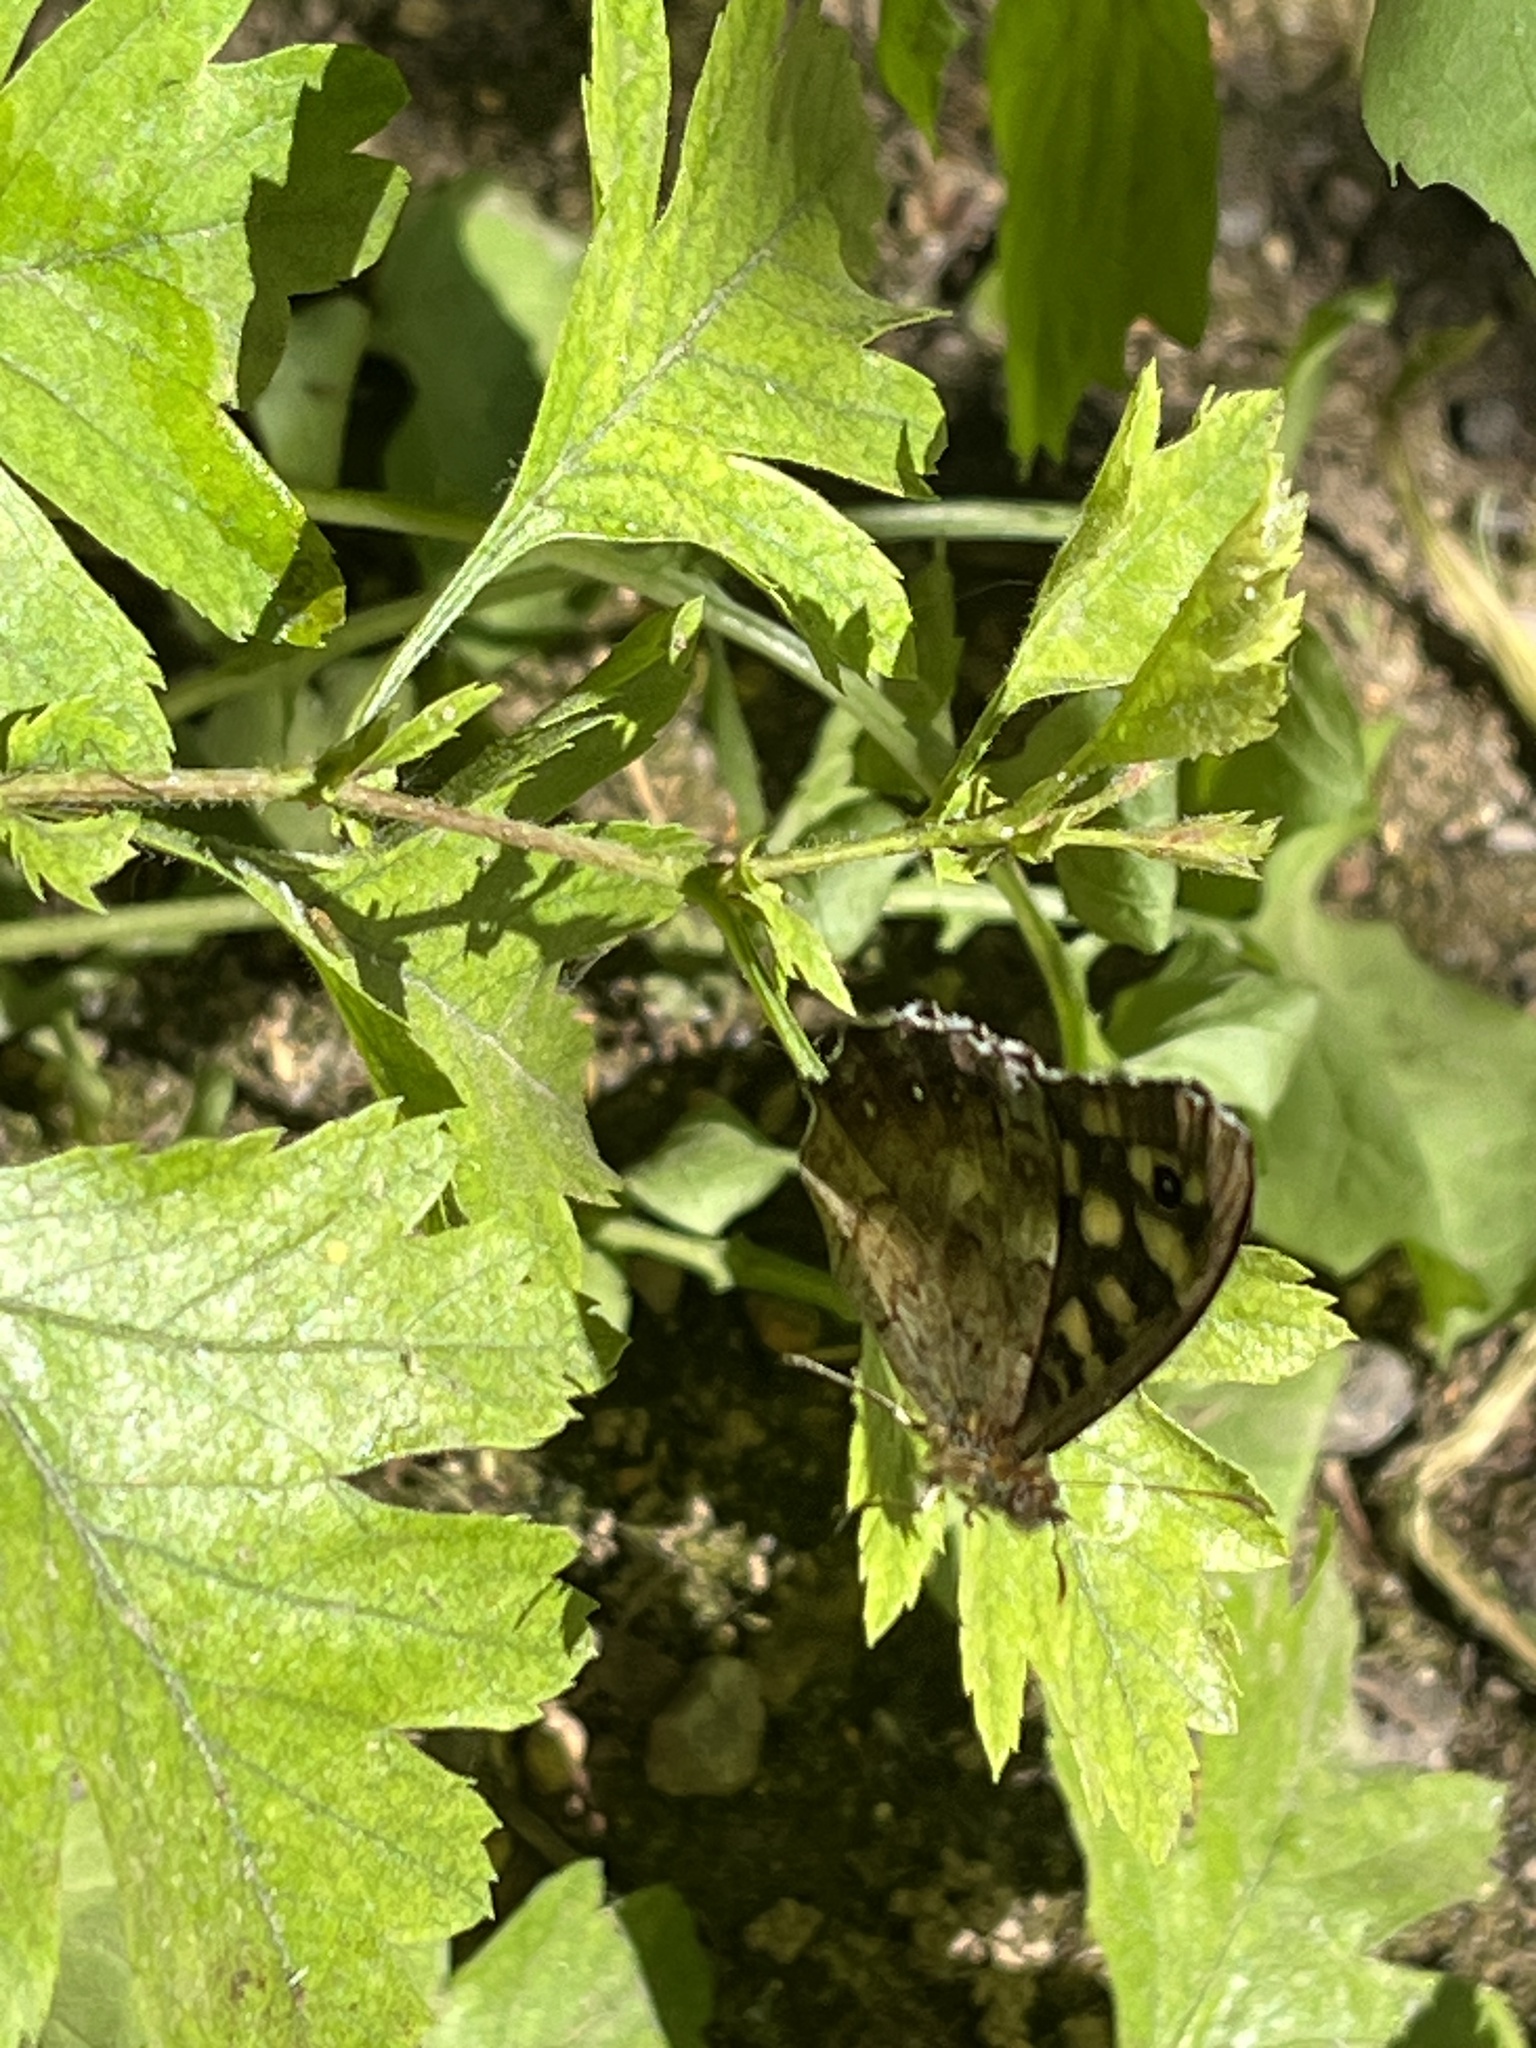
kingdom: Animalia
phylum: Arthropoda
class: Insecta
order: Lepidoptera
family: Nymphalidae
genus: Pararge
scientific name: Pararge aegeria
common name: Speckled wood
